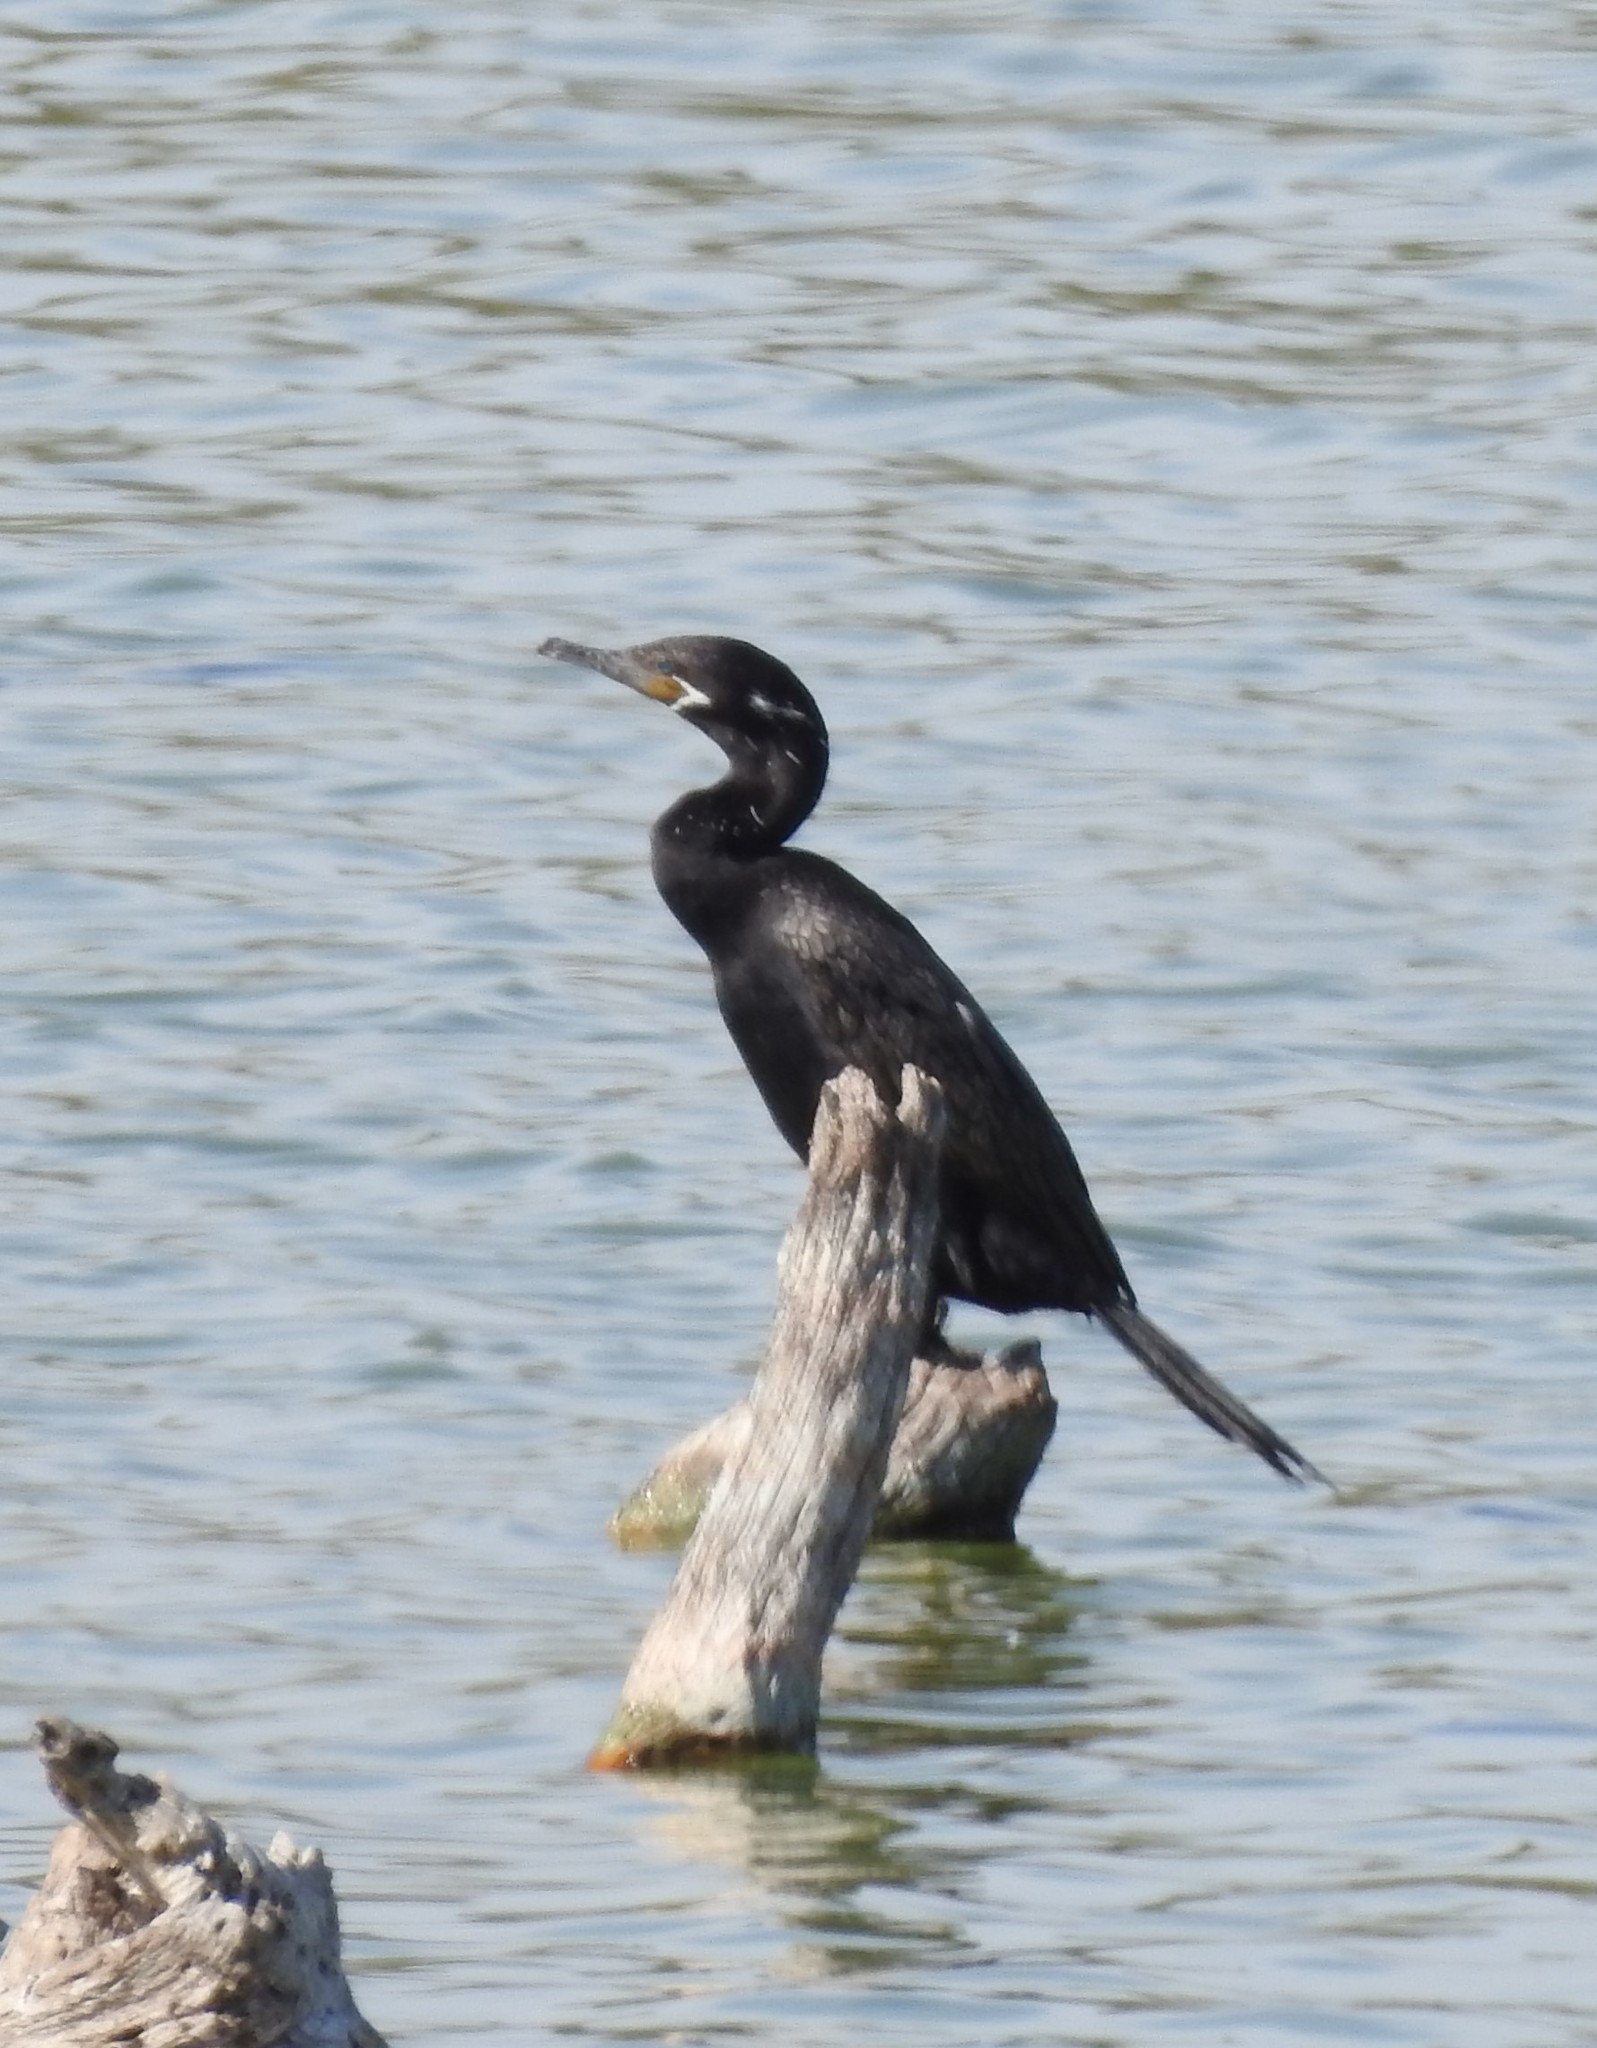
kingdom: Animalia
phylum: Chordata
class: Aves
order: Suliformes
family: Phalacrocoracidae
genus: Phalacrocorax
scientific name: Phalacrocorax brasilianus
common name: Neotropic cormorant
